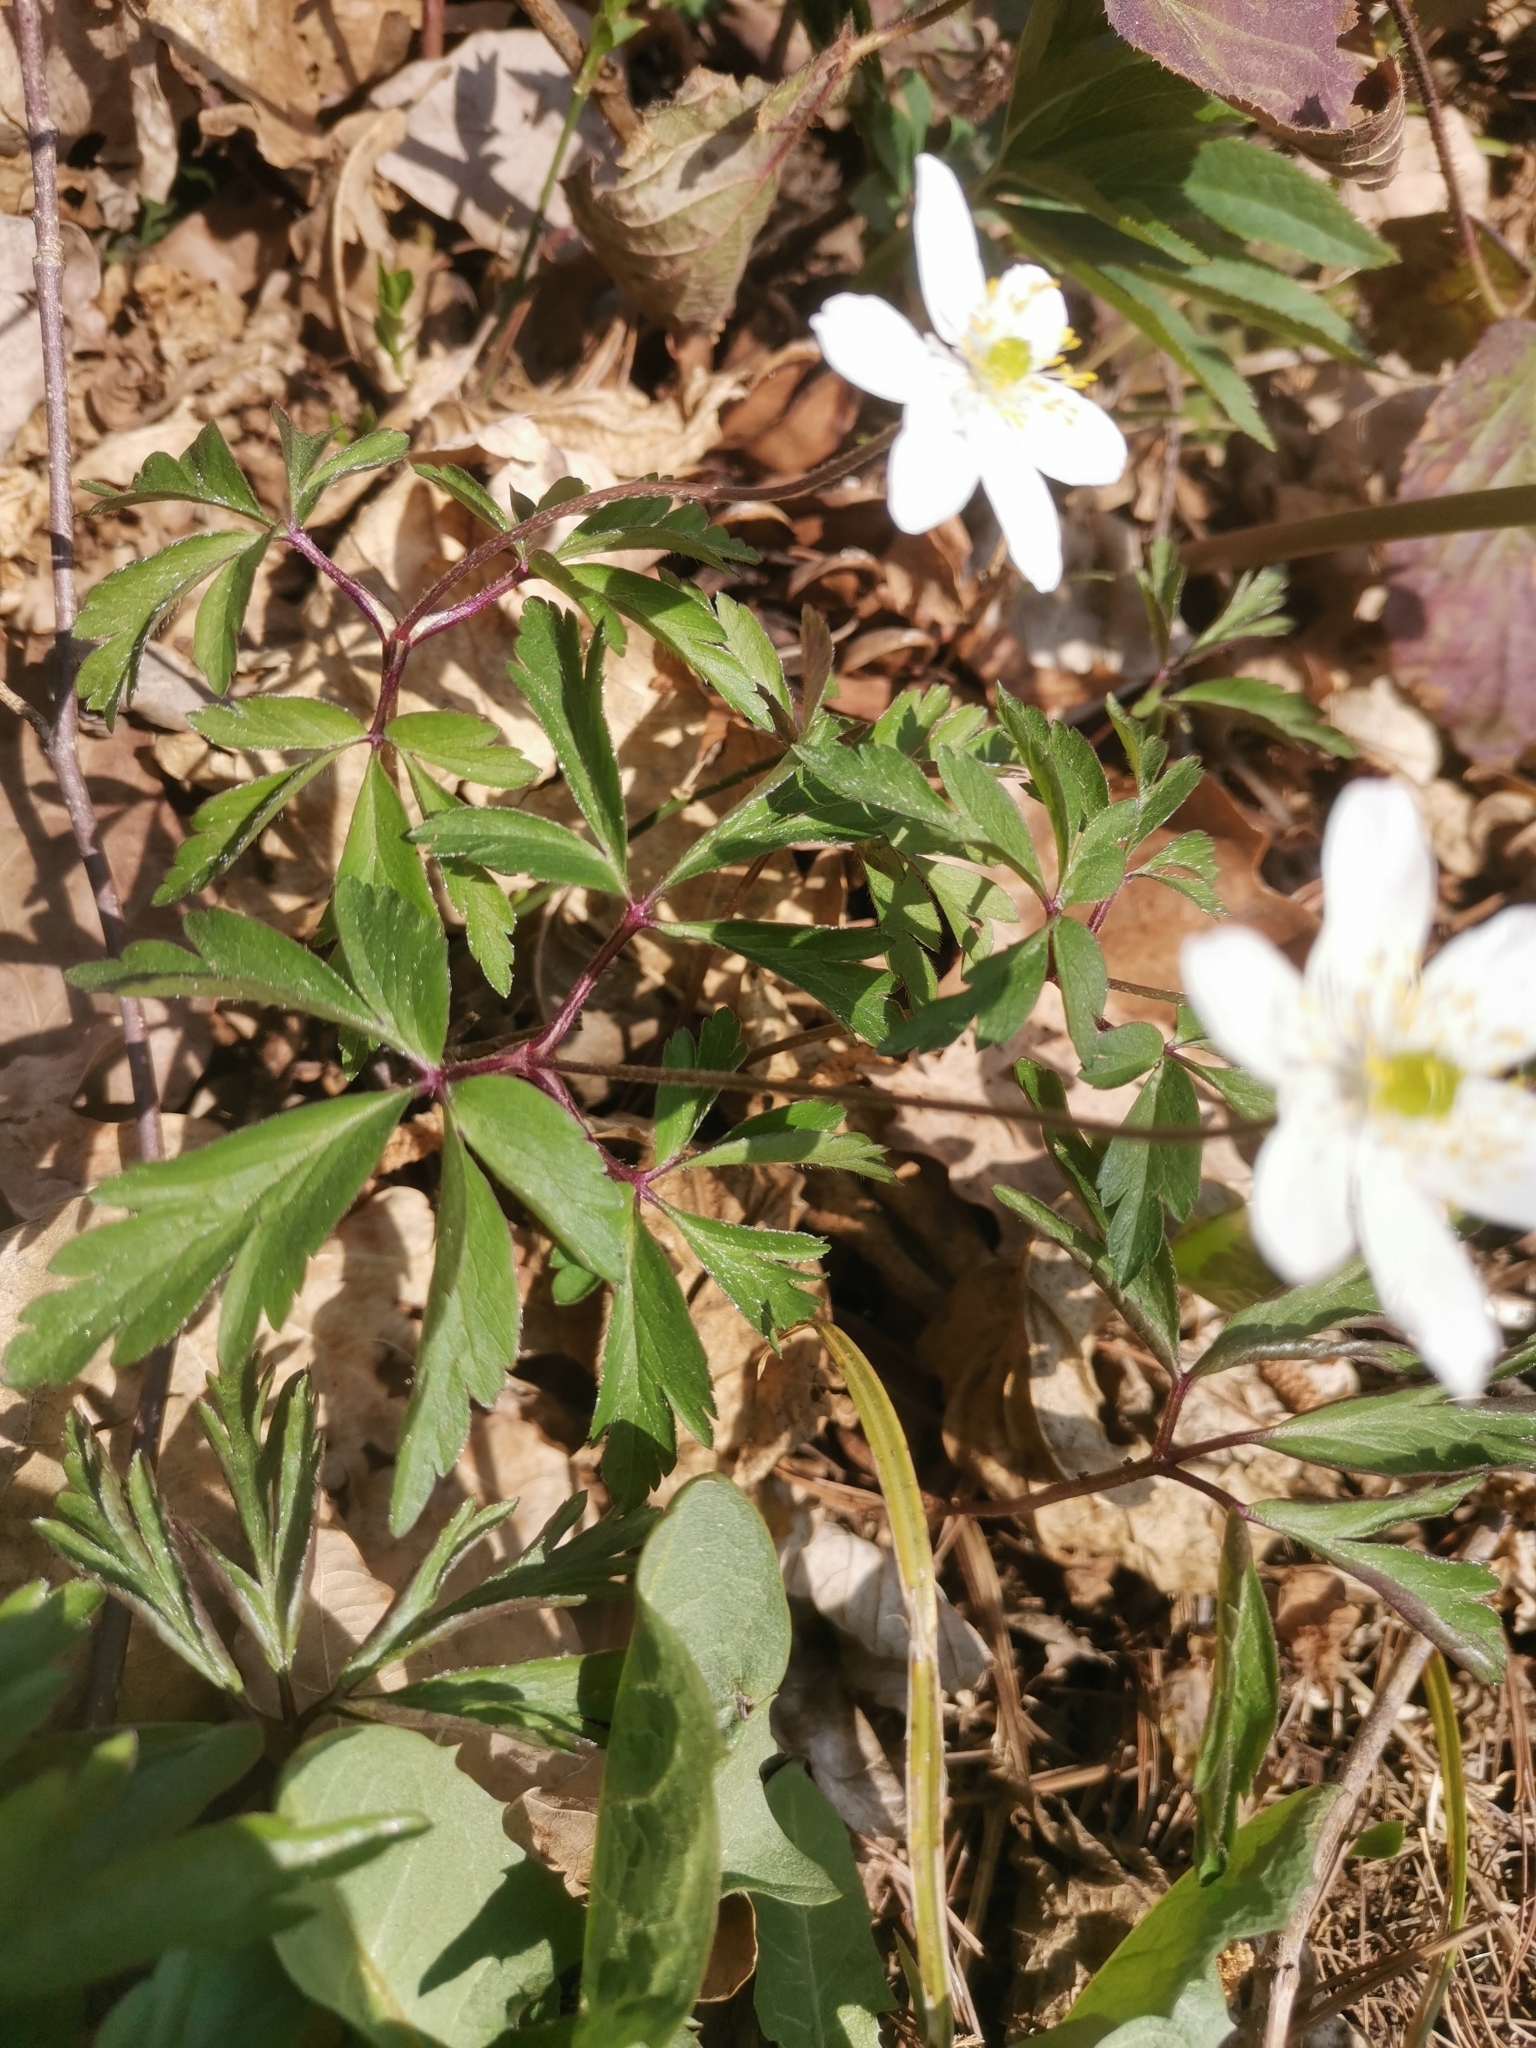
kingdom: Plantae
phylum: Tracheophyta
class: Magnoliopsida
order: Ranunculales
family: Ranunculaceae
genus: Anemone
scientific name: Anemone nemorosa
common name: Wood anemone
